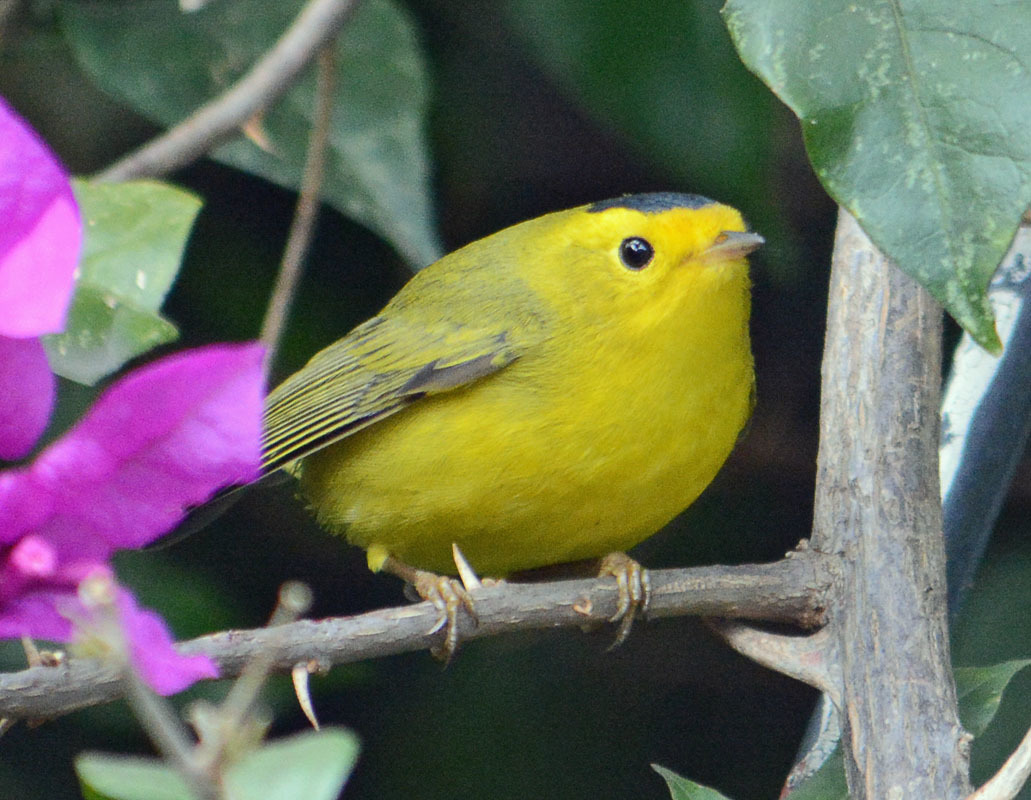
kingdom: Animalia
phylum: Chordata
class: Aves
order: Passeriformes
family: Parulidae
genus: Cardellina
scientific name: Cardellina pusilla
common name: Wilson's warbler
